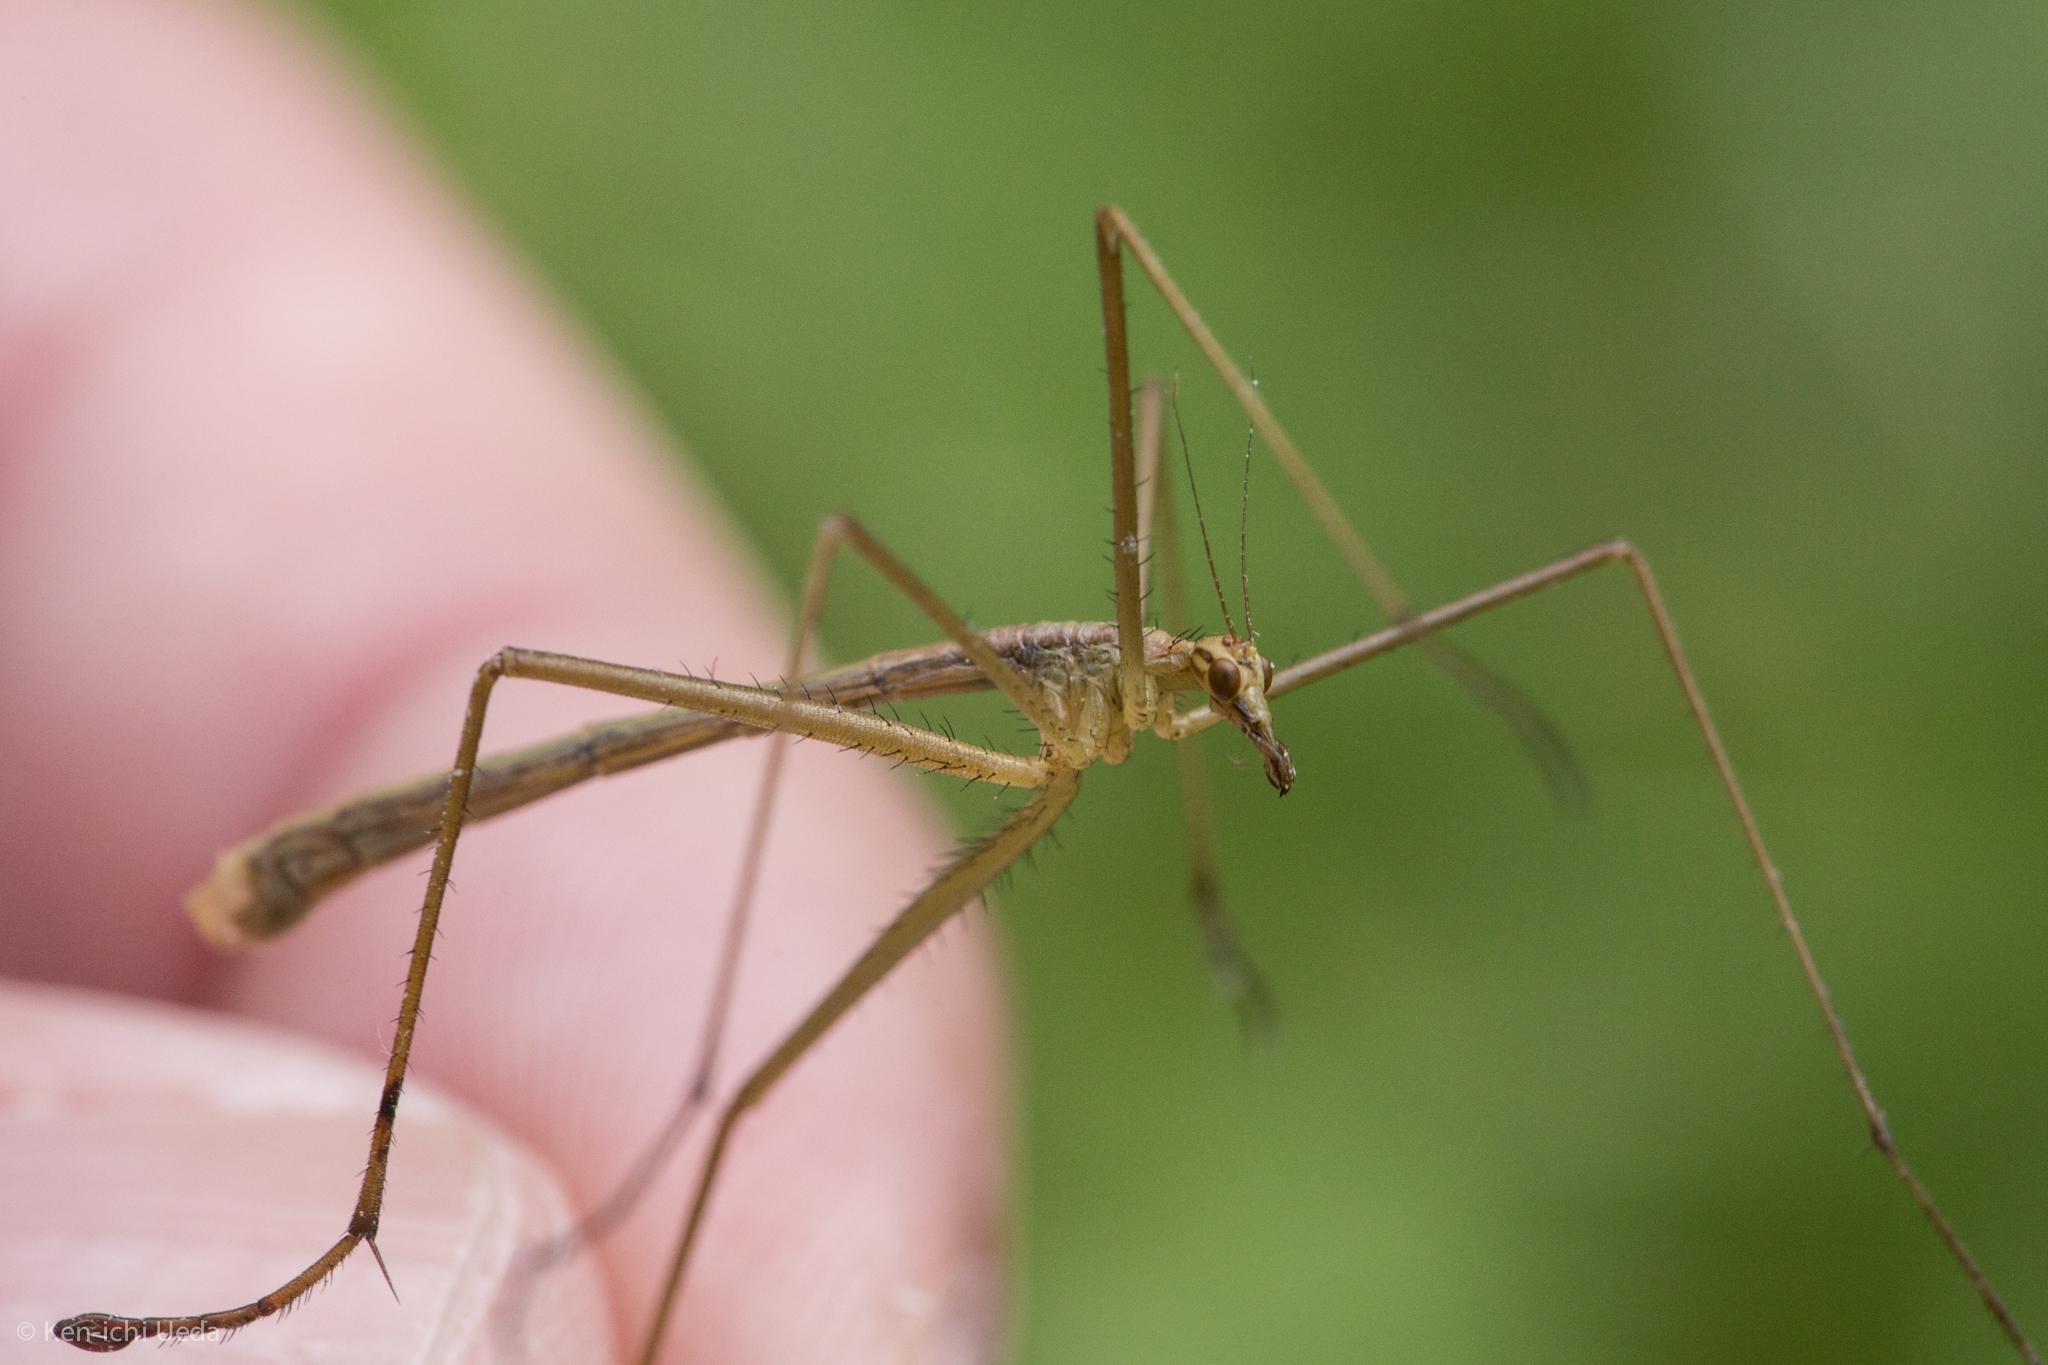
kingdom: Animalia
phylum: Arthropoda
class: Insecta
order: Mecoptera
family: Bittacidae
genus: Apterobittacus
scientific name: Apterobittacus apterus
